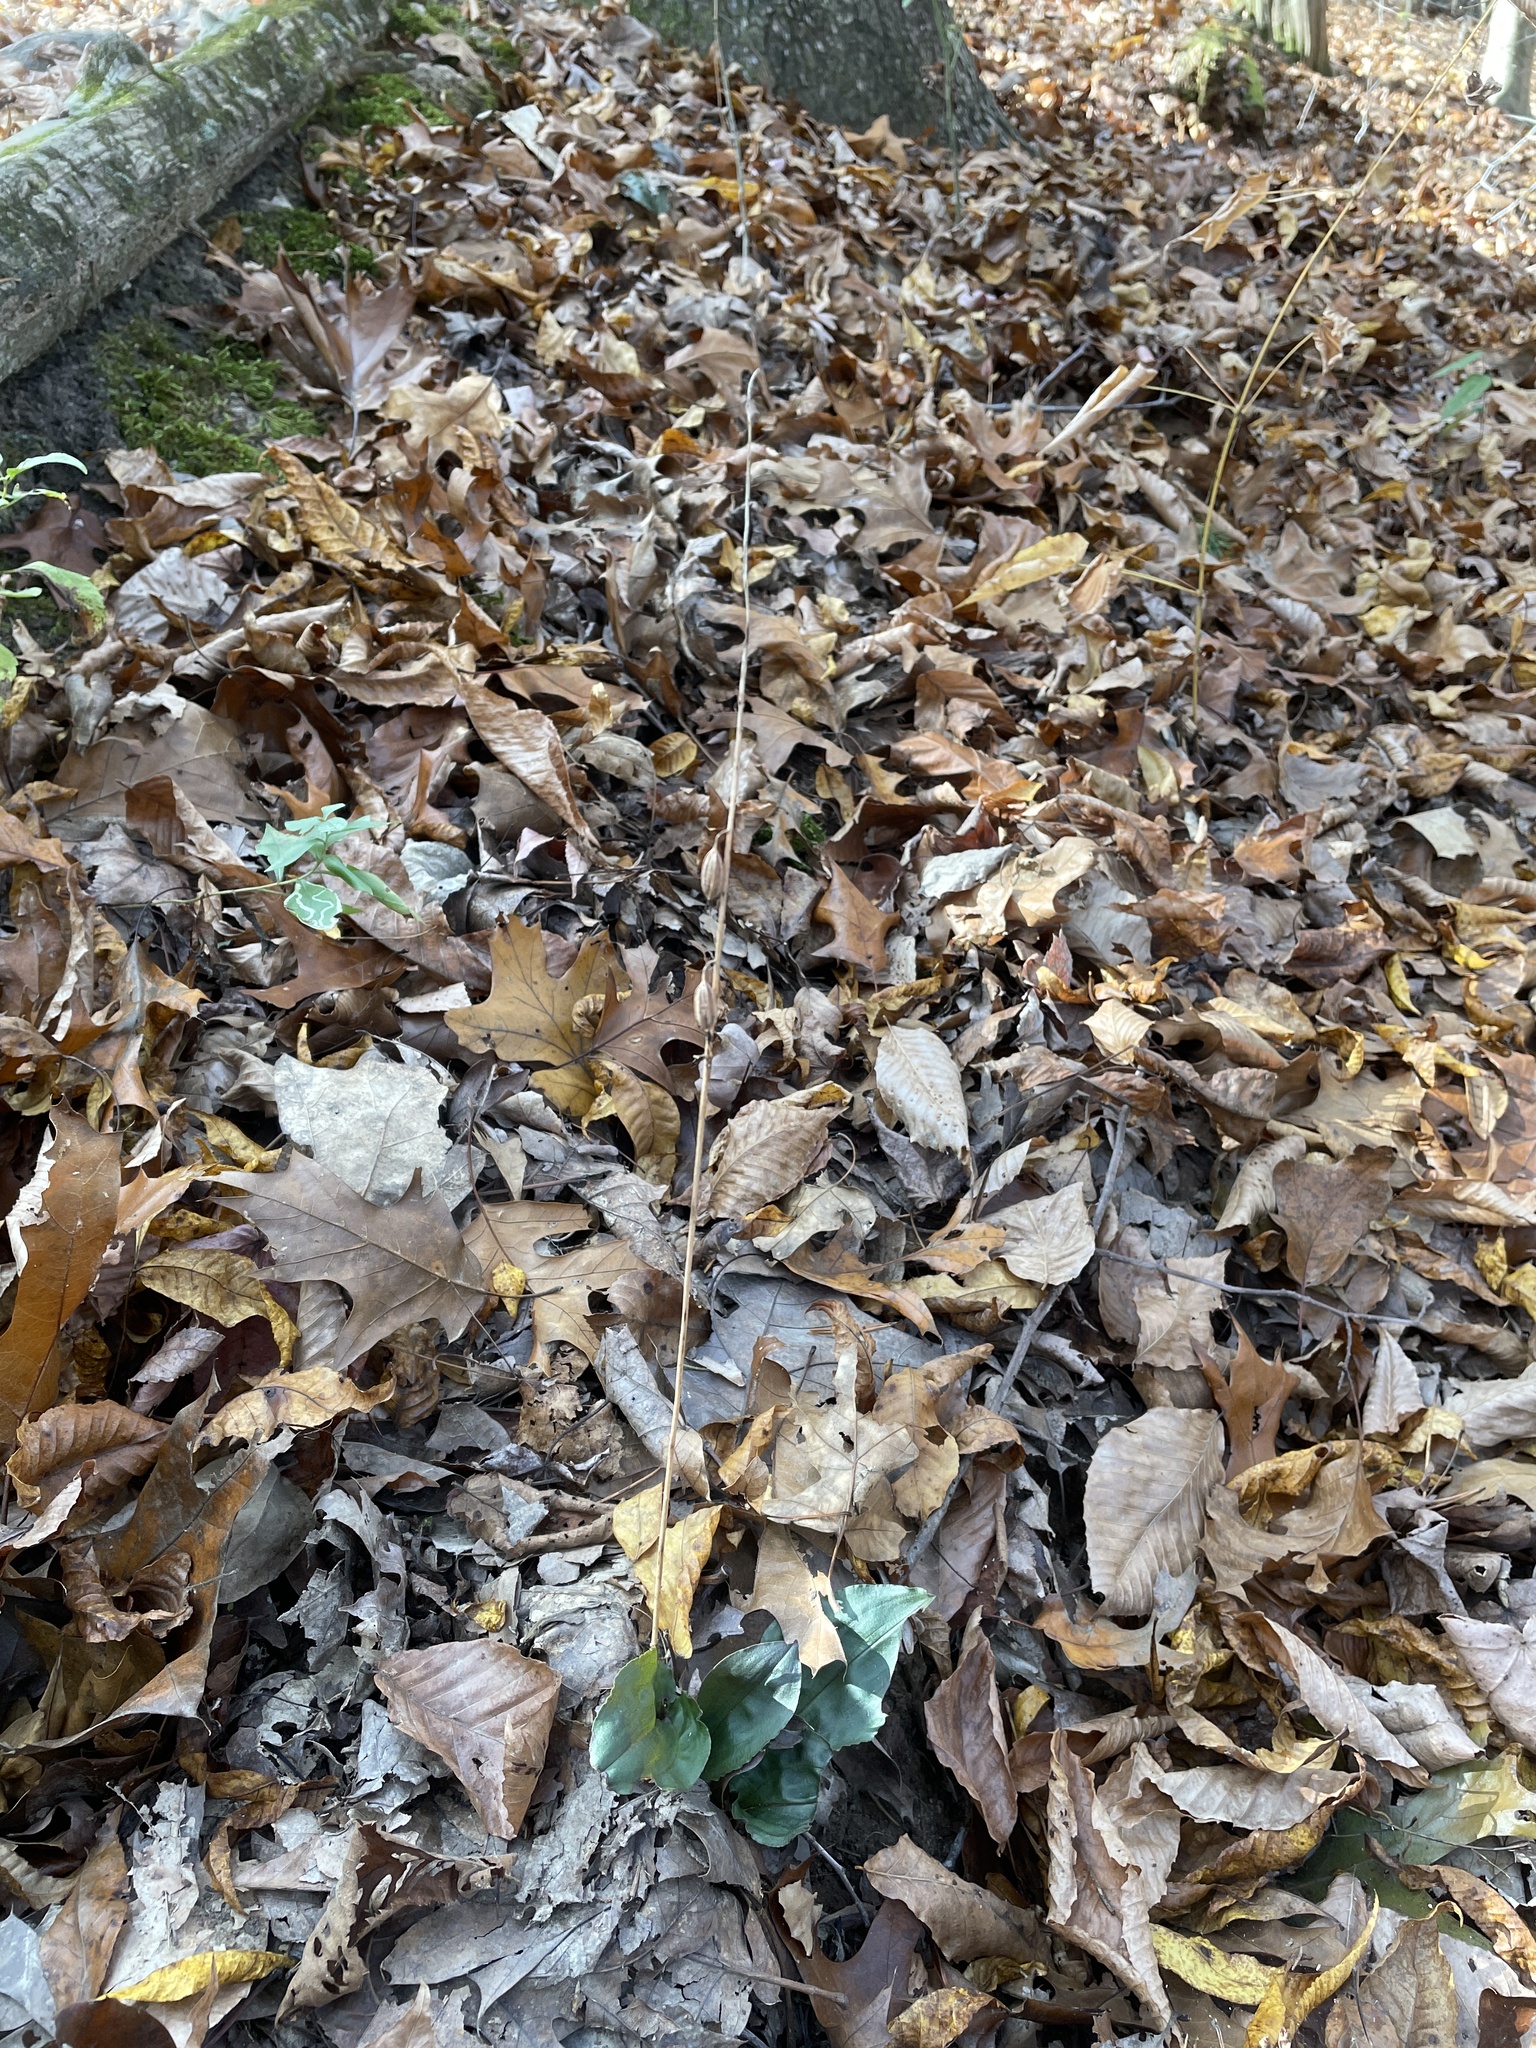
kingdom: Plantae
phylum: Tracheophyta
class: Liliopsida
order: Asparagales
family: Orchidaceae
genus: Tipularia
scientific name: Tipularia discolor
